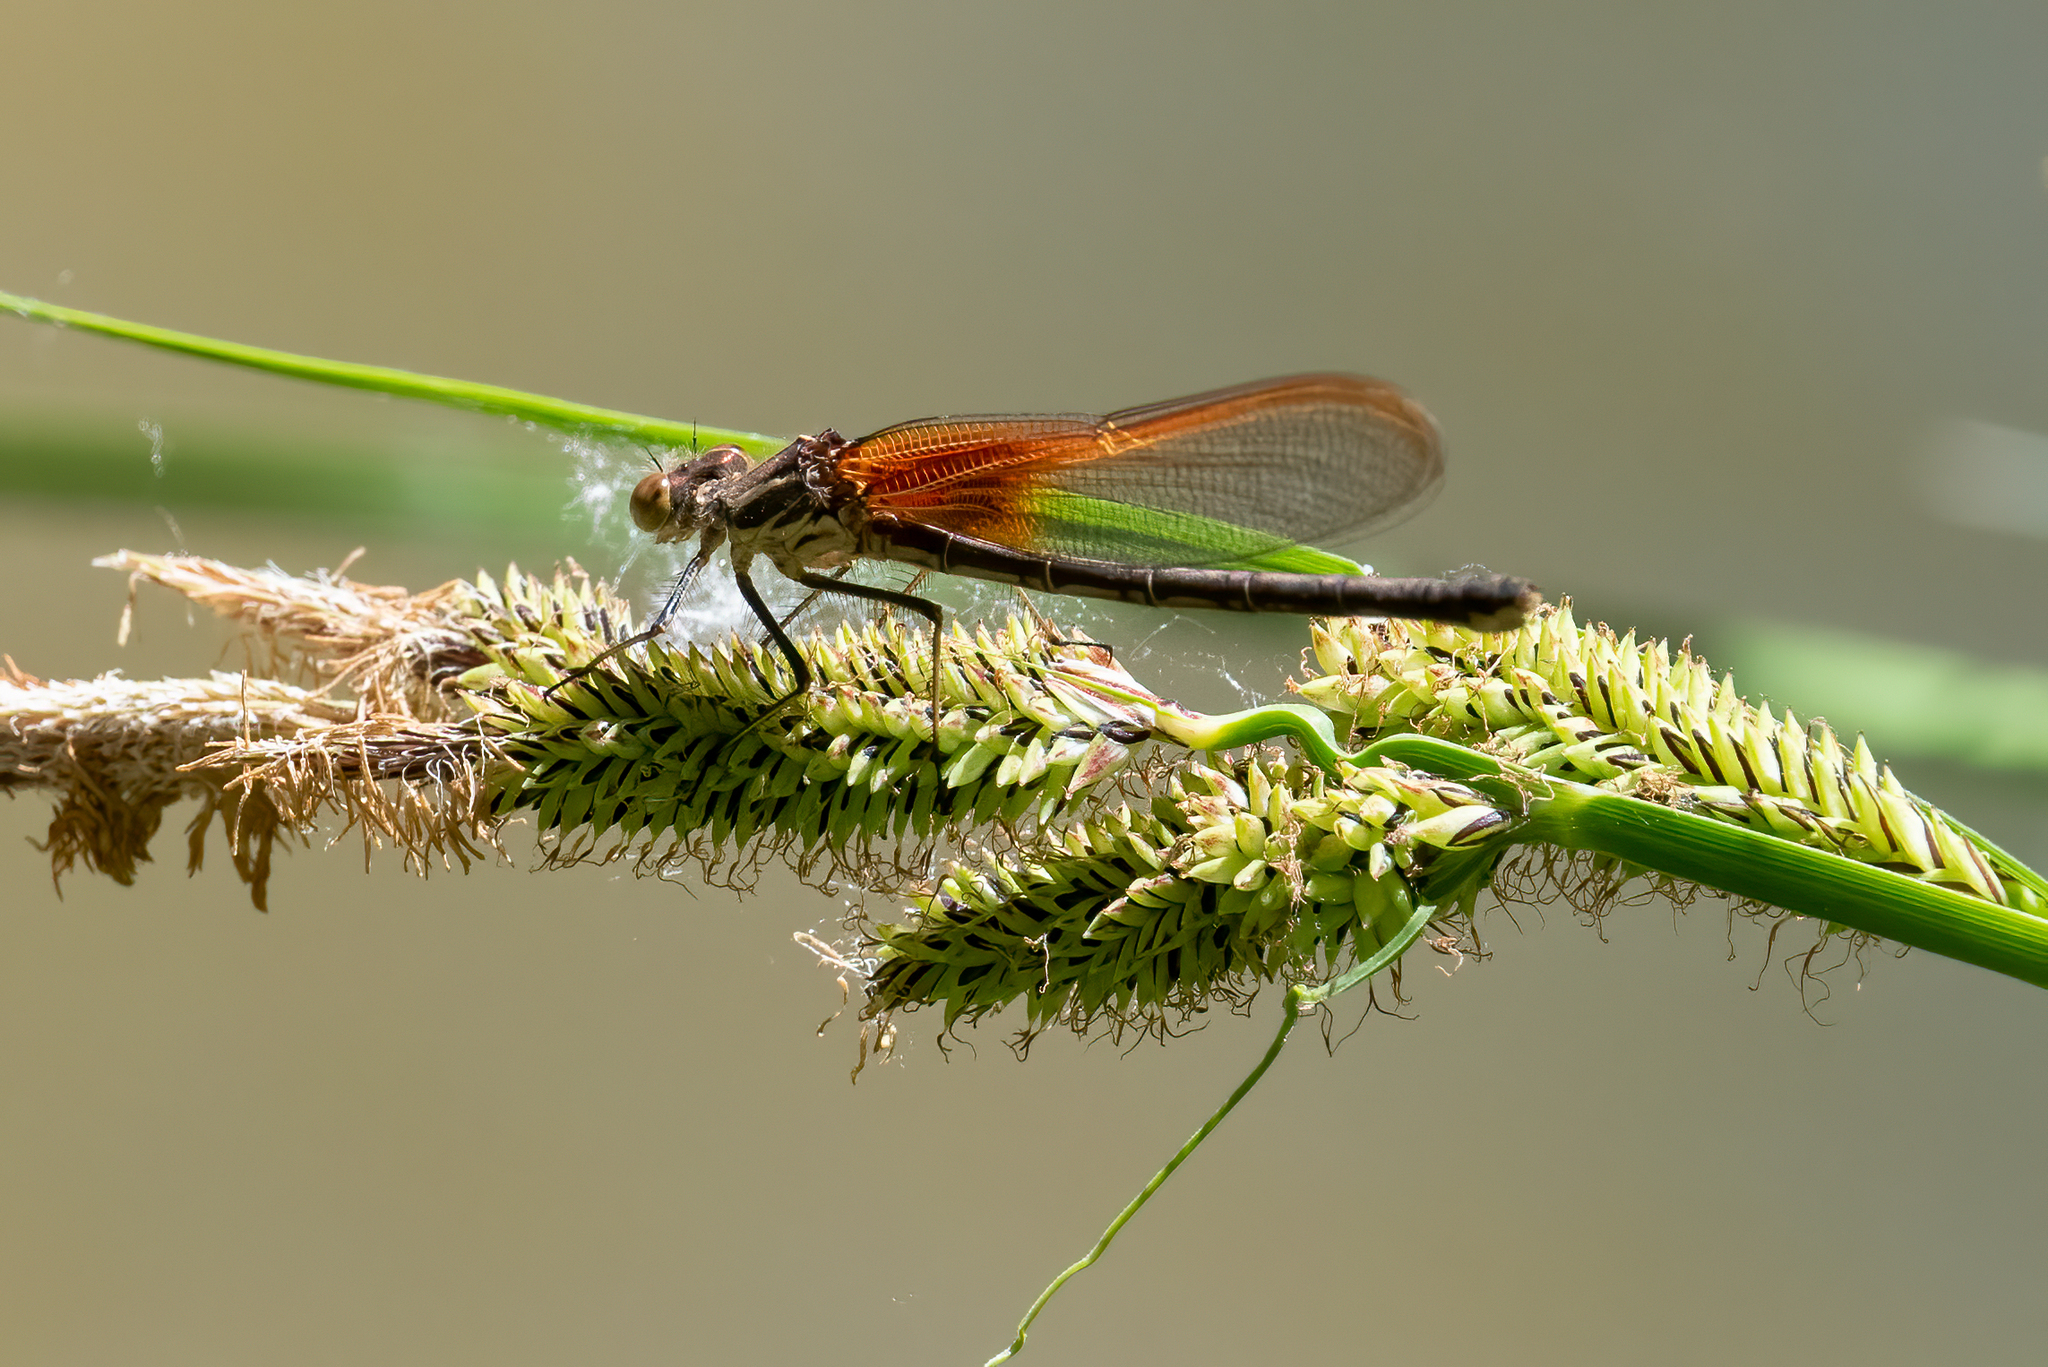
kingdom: Animalia
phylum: Arthropoda
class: Insecta
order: Odonata
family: Calopterygidae
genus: Hetaerina
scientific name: Hetaerina americana
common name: American rubyspot
